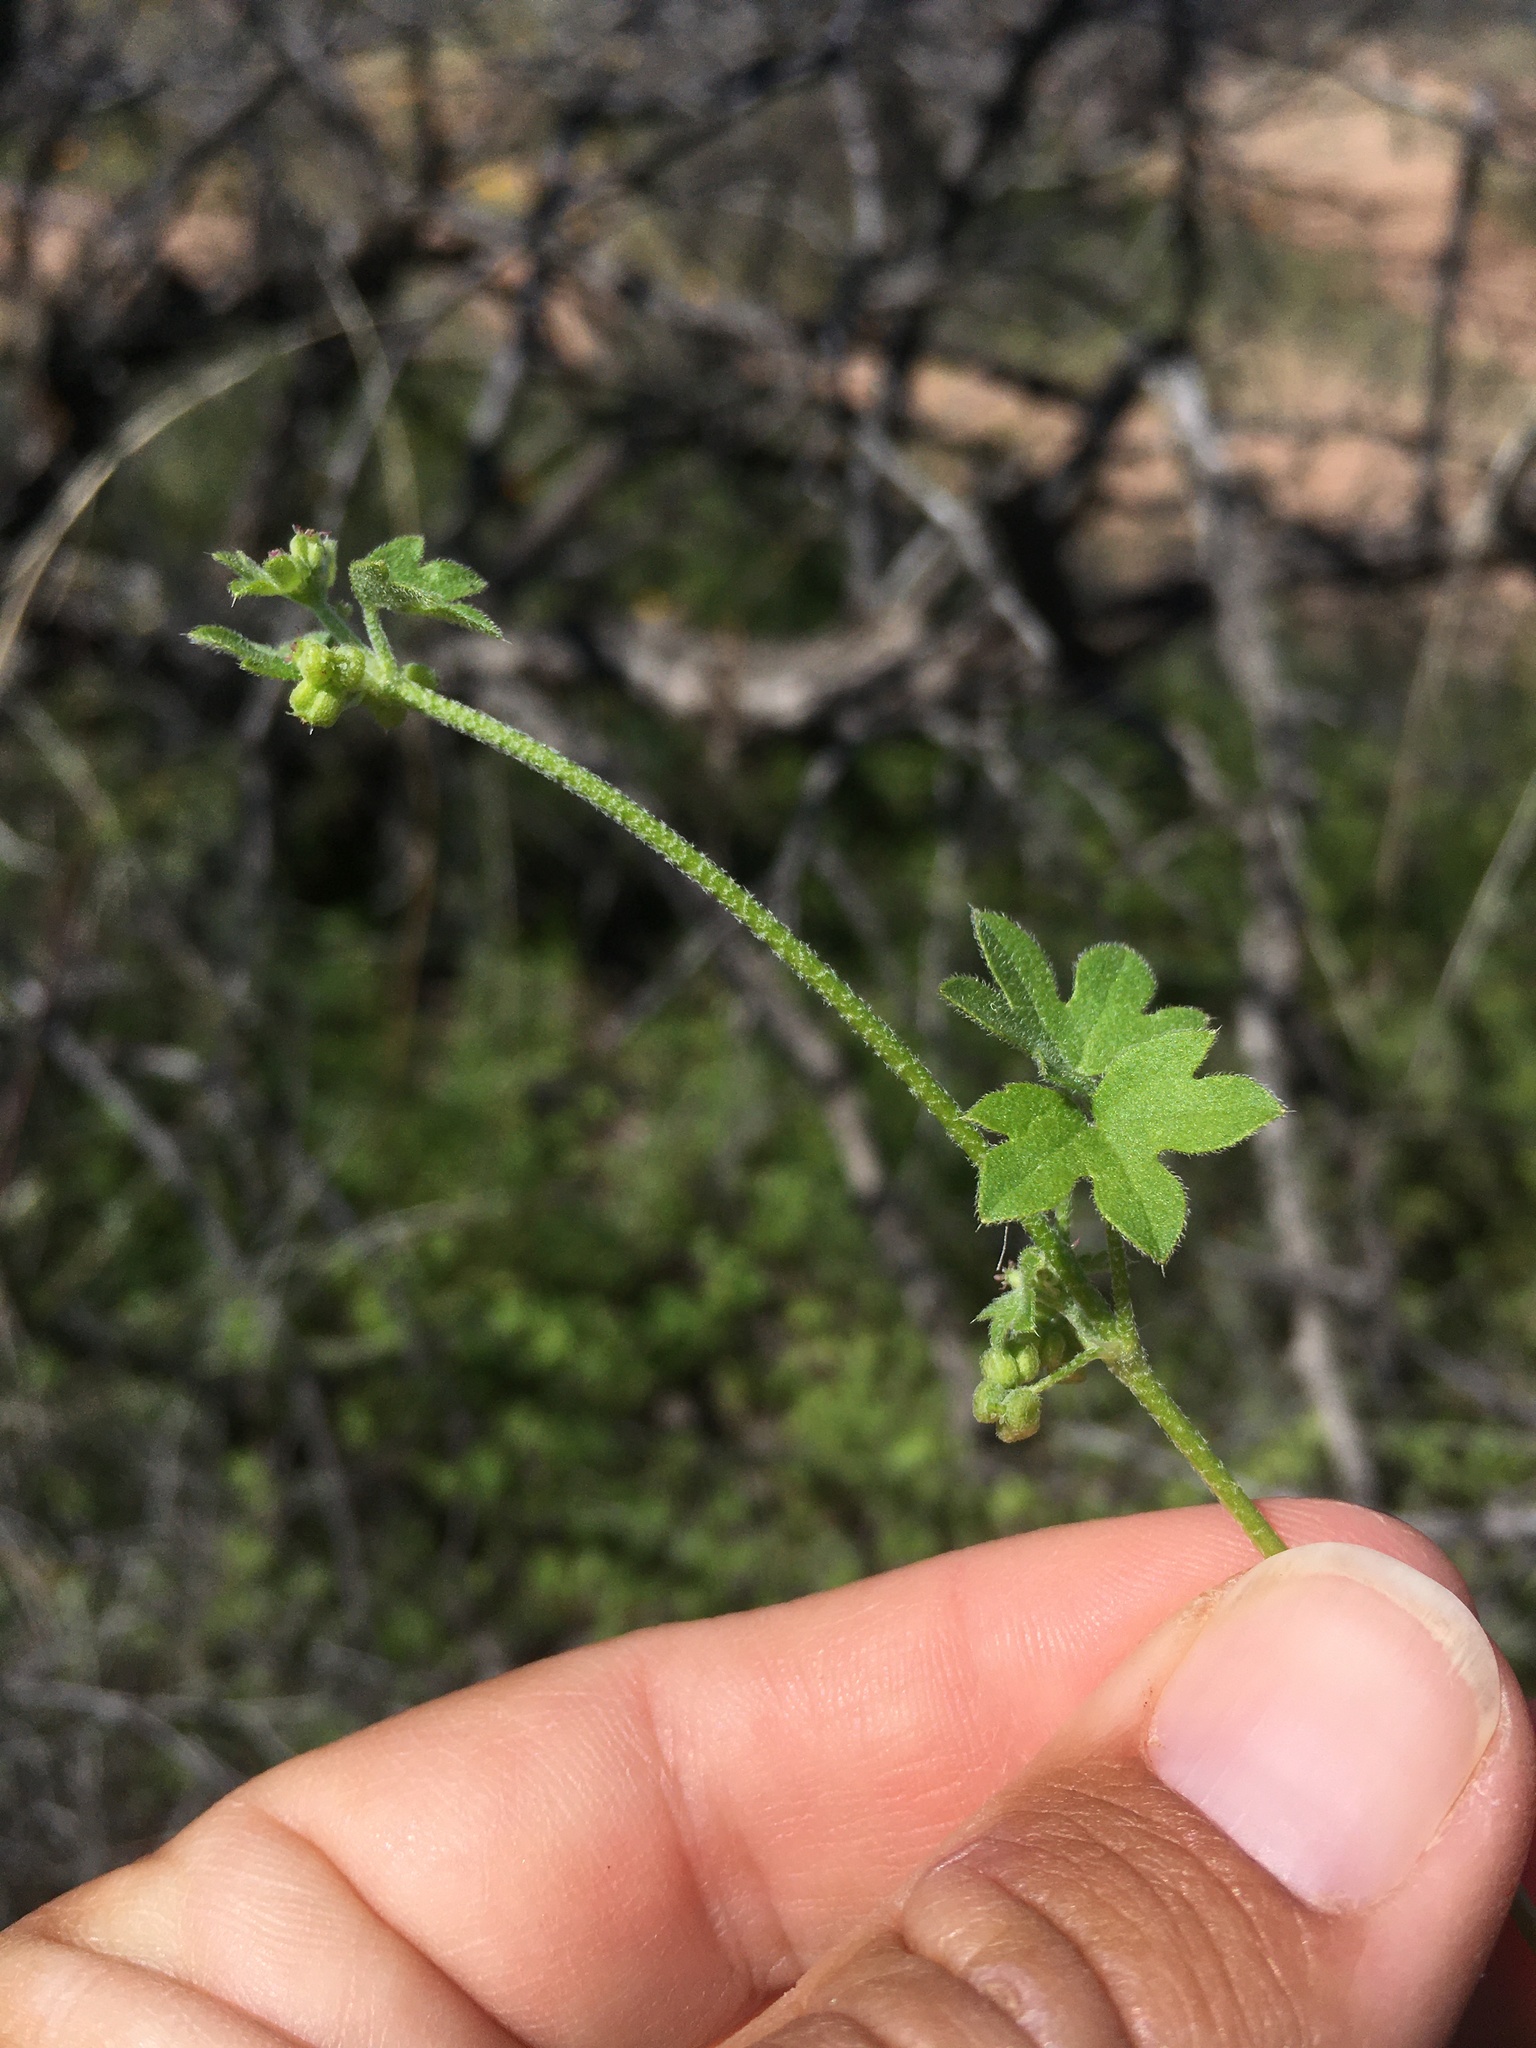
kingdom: Plantae
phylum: Tracheophyta
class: Magnoliopsida
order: Apiales
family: Apiaceae
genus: Bowlesia
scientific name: Bowlesia incana
